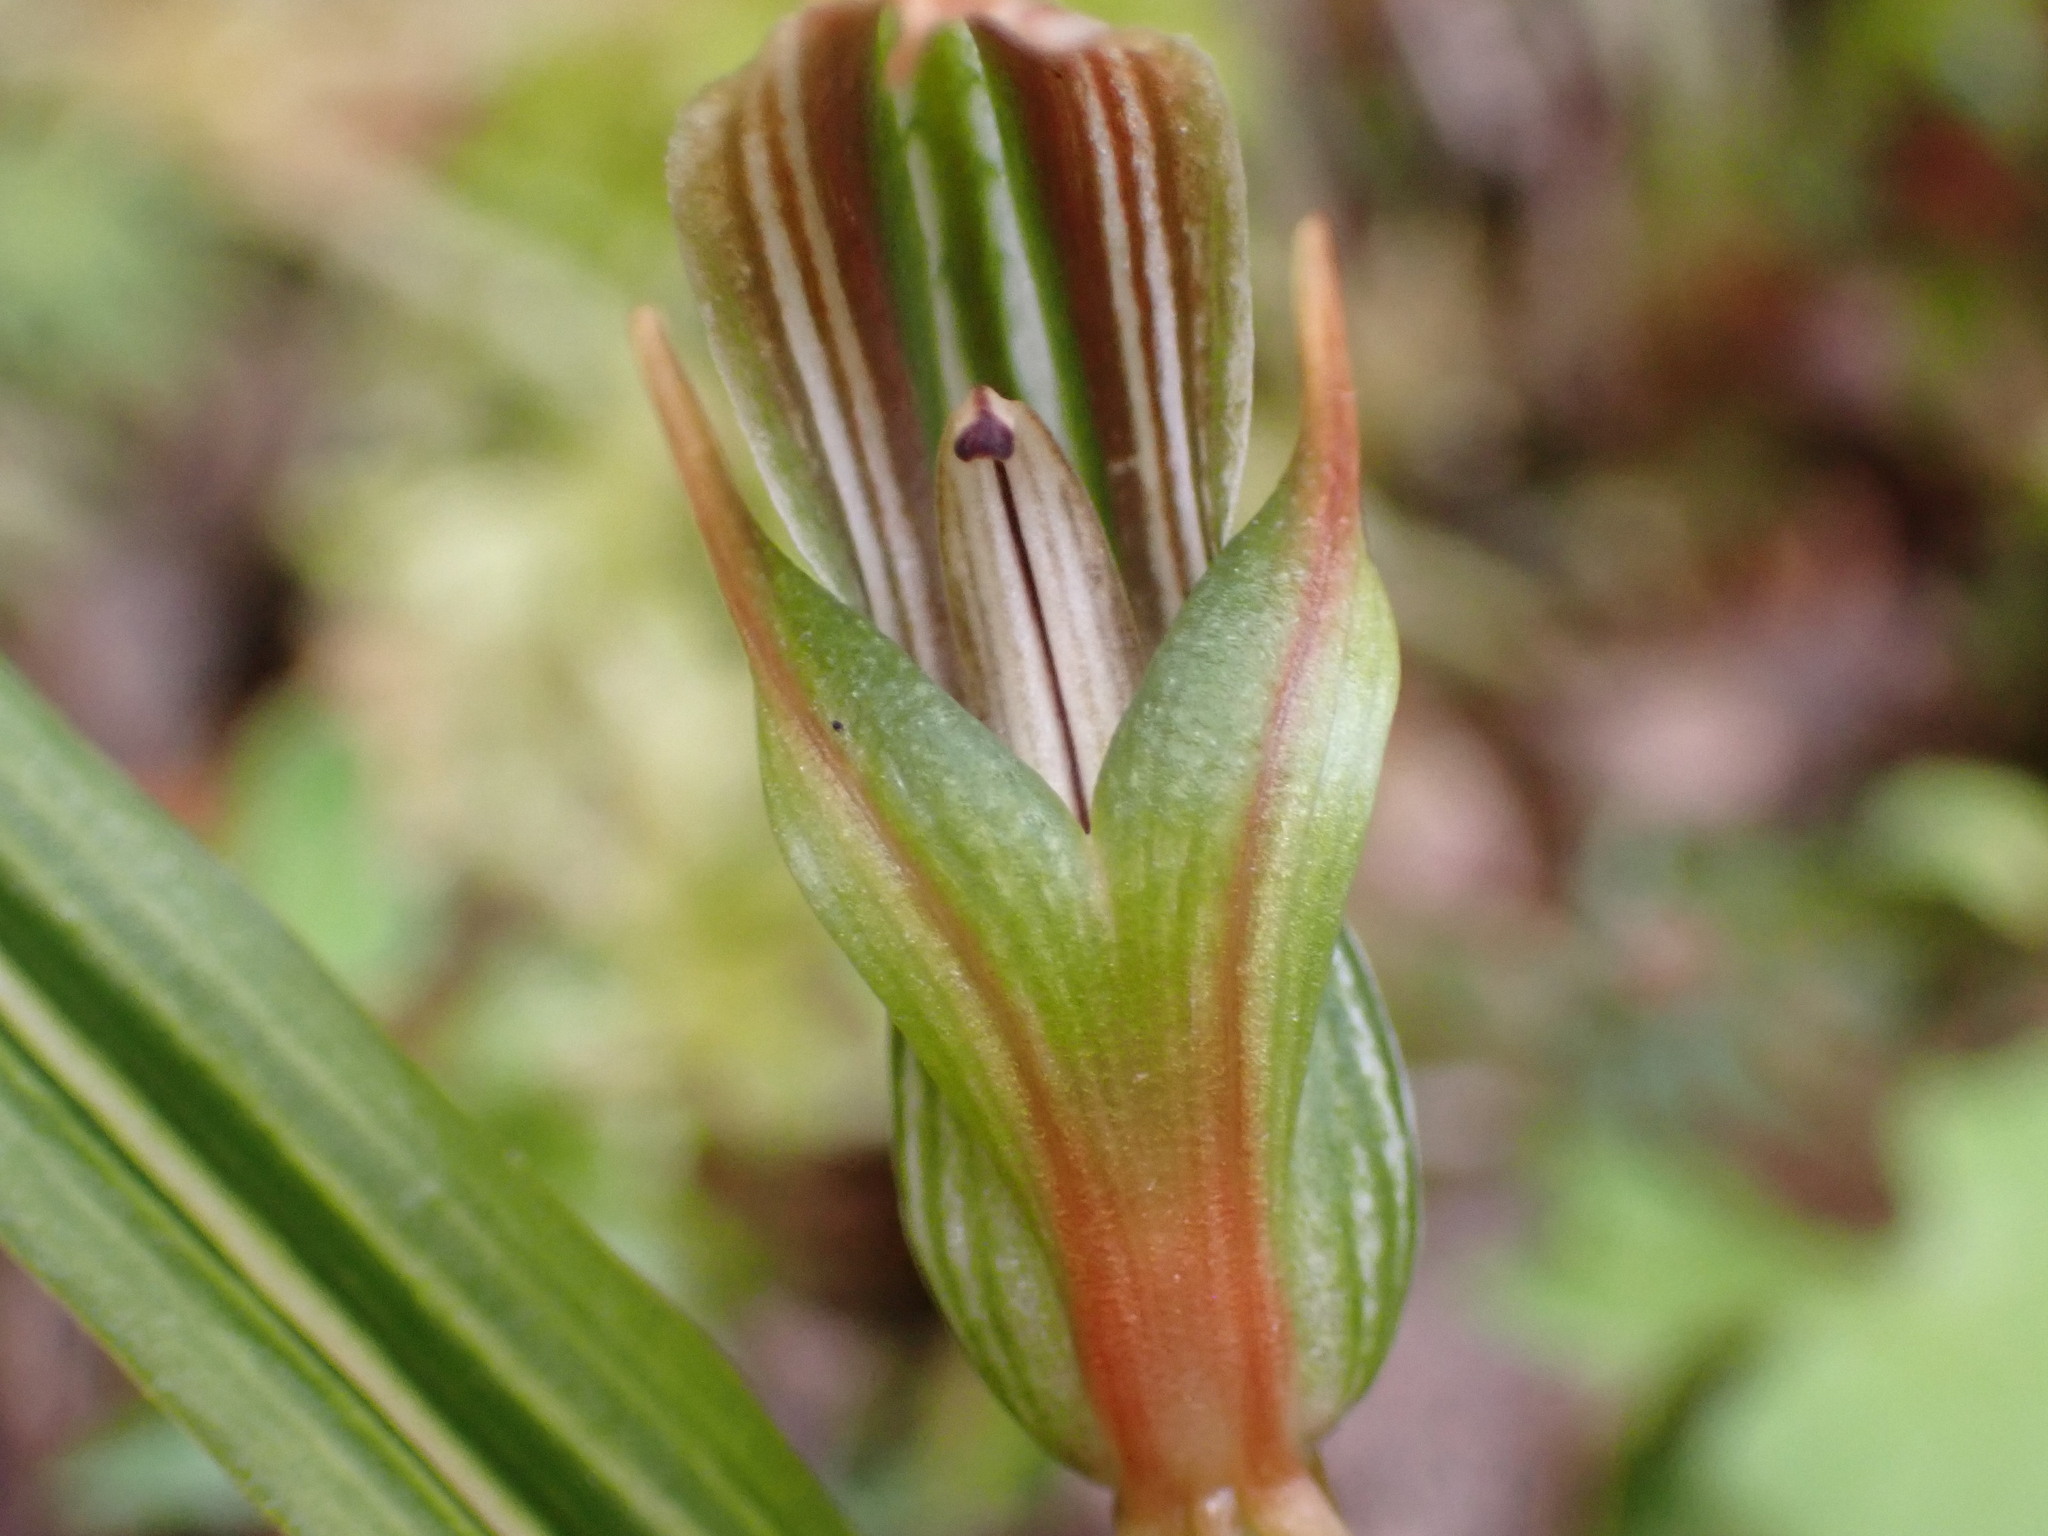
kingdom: Plantae
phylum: Tracheophyta
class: Liliopsida
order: Asparagales
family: Orchidaceae
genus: Pterostylis
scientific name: Pterostylis irsoniana
